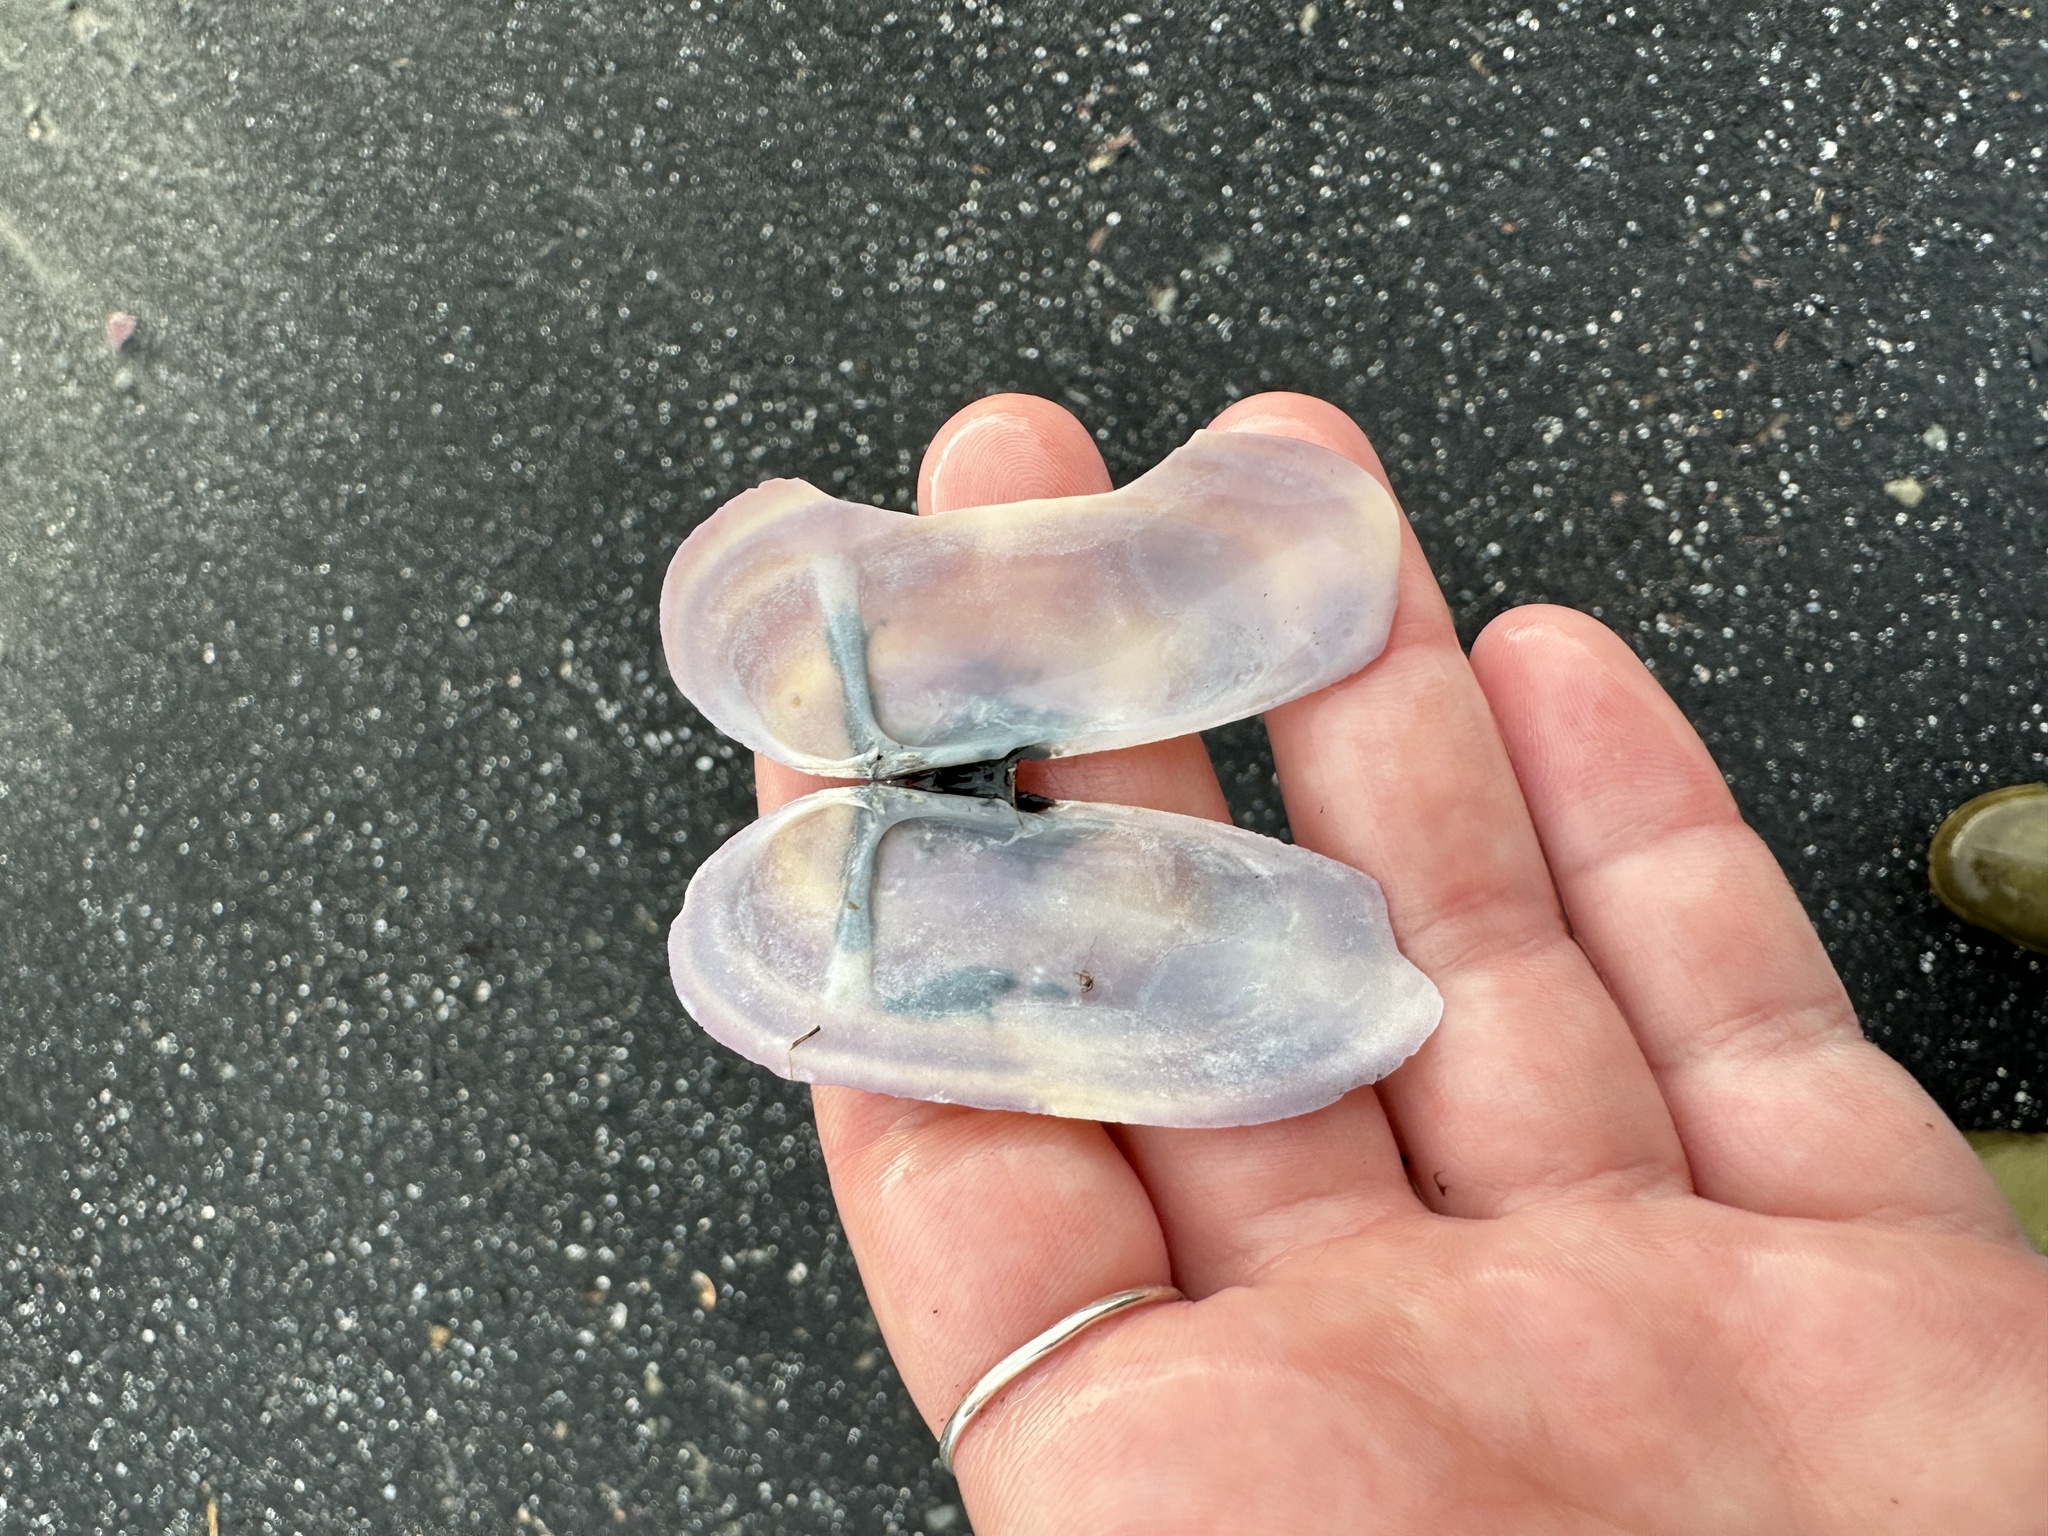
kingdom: Animalia
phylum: Mollusca
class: Bivalvia
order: Adapedonta
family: Pharidae
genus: Siliqua
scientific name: Siliqua costata
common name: Atlantic razor
